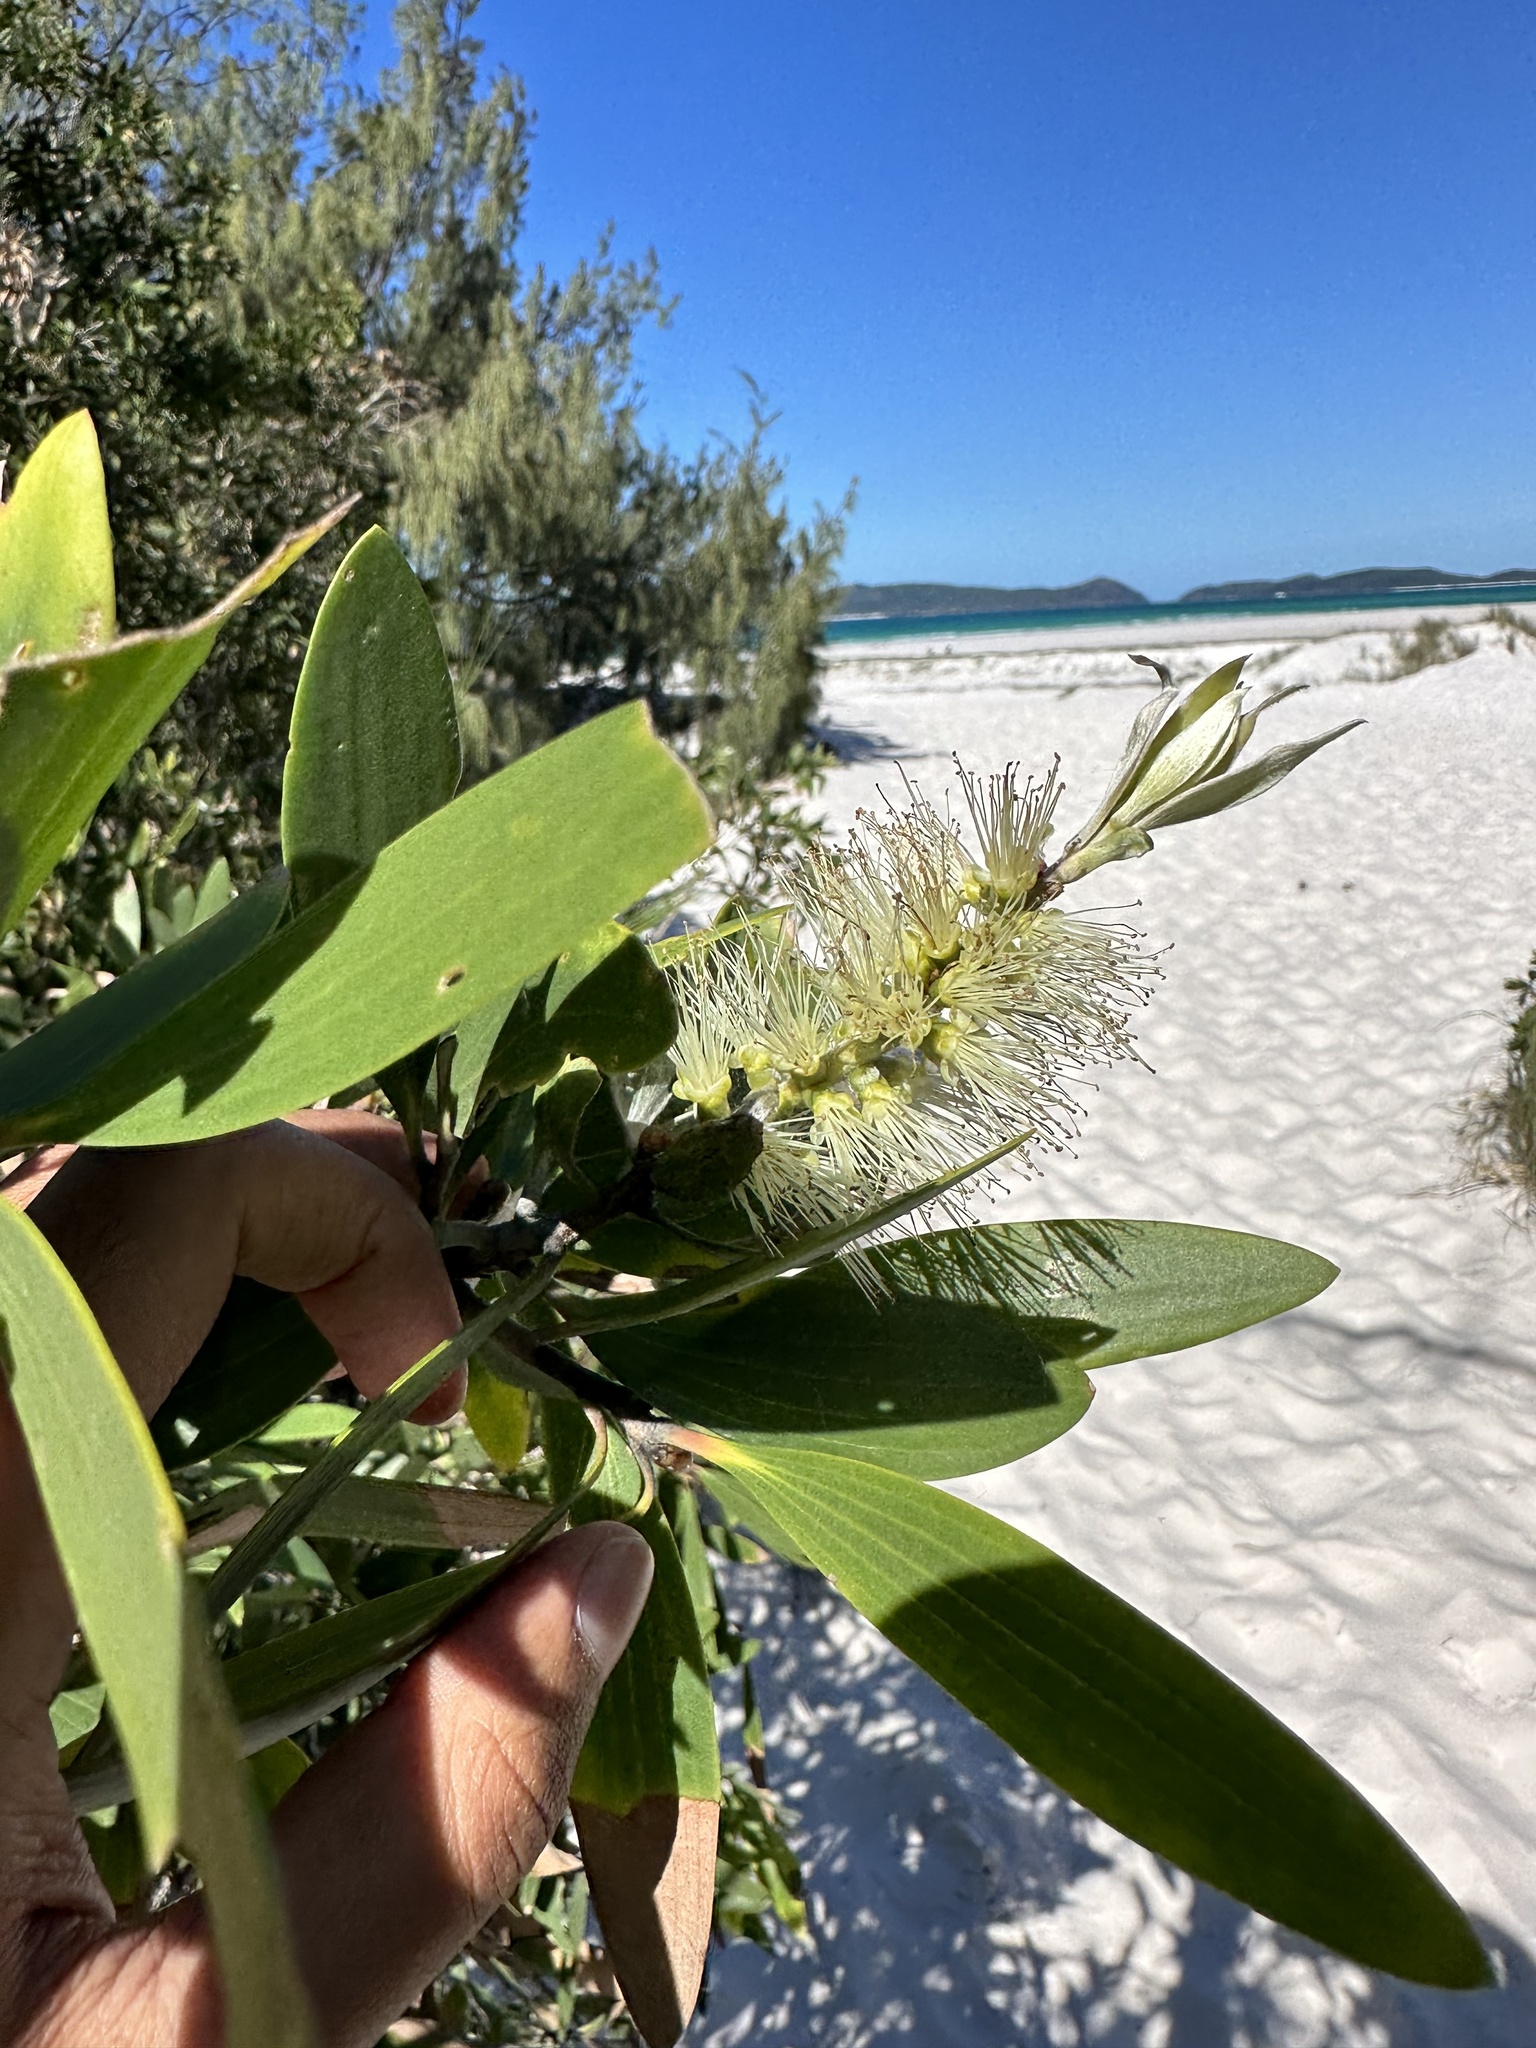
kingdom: Plantae
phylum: Tracheophyta
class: Magnoliopsida
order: Myrtales
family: Myrtaceae
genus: Melaleuca
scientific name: Melaleuca viridiflora
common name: Brown-leaved paperbark
